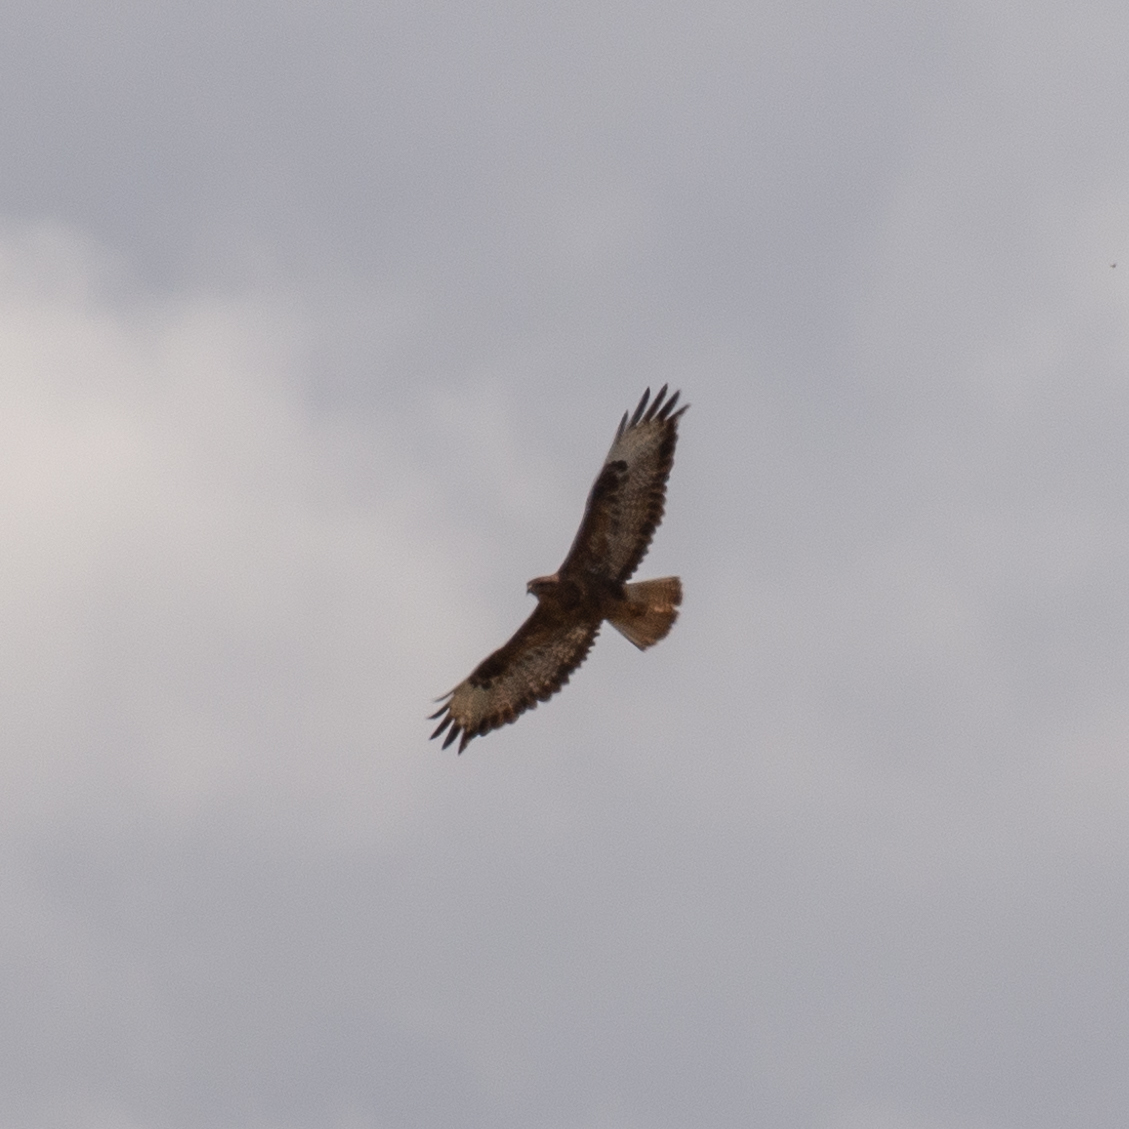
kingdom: Animalia
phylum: Chordata
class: Aves
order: Accipitriformes
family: Accipitridae
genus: Buteo
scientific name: Buteo buteo
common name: Common buzzard
